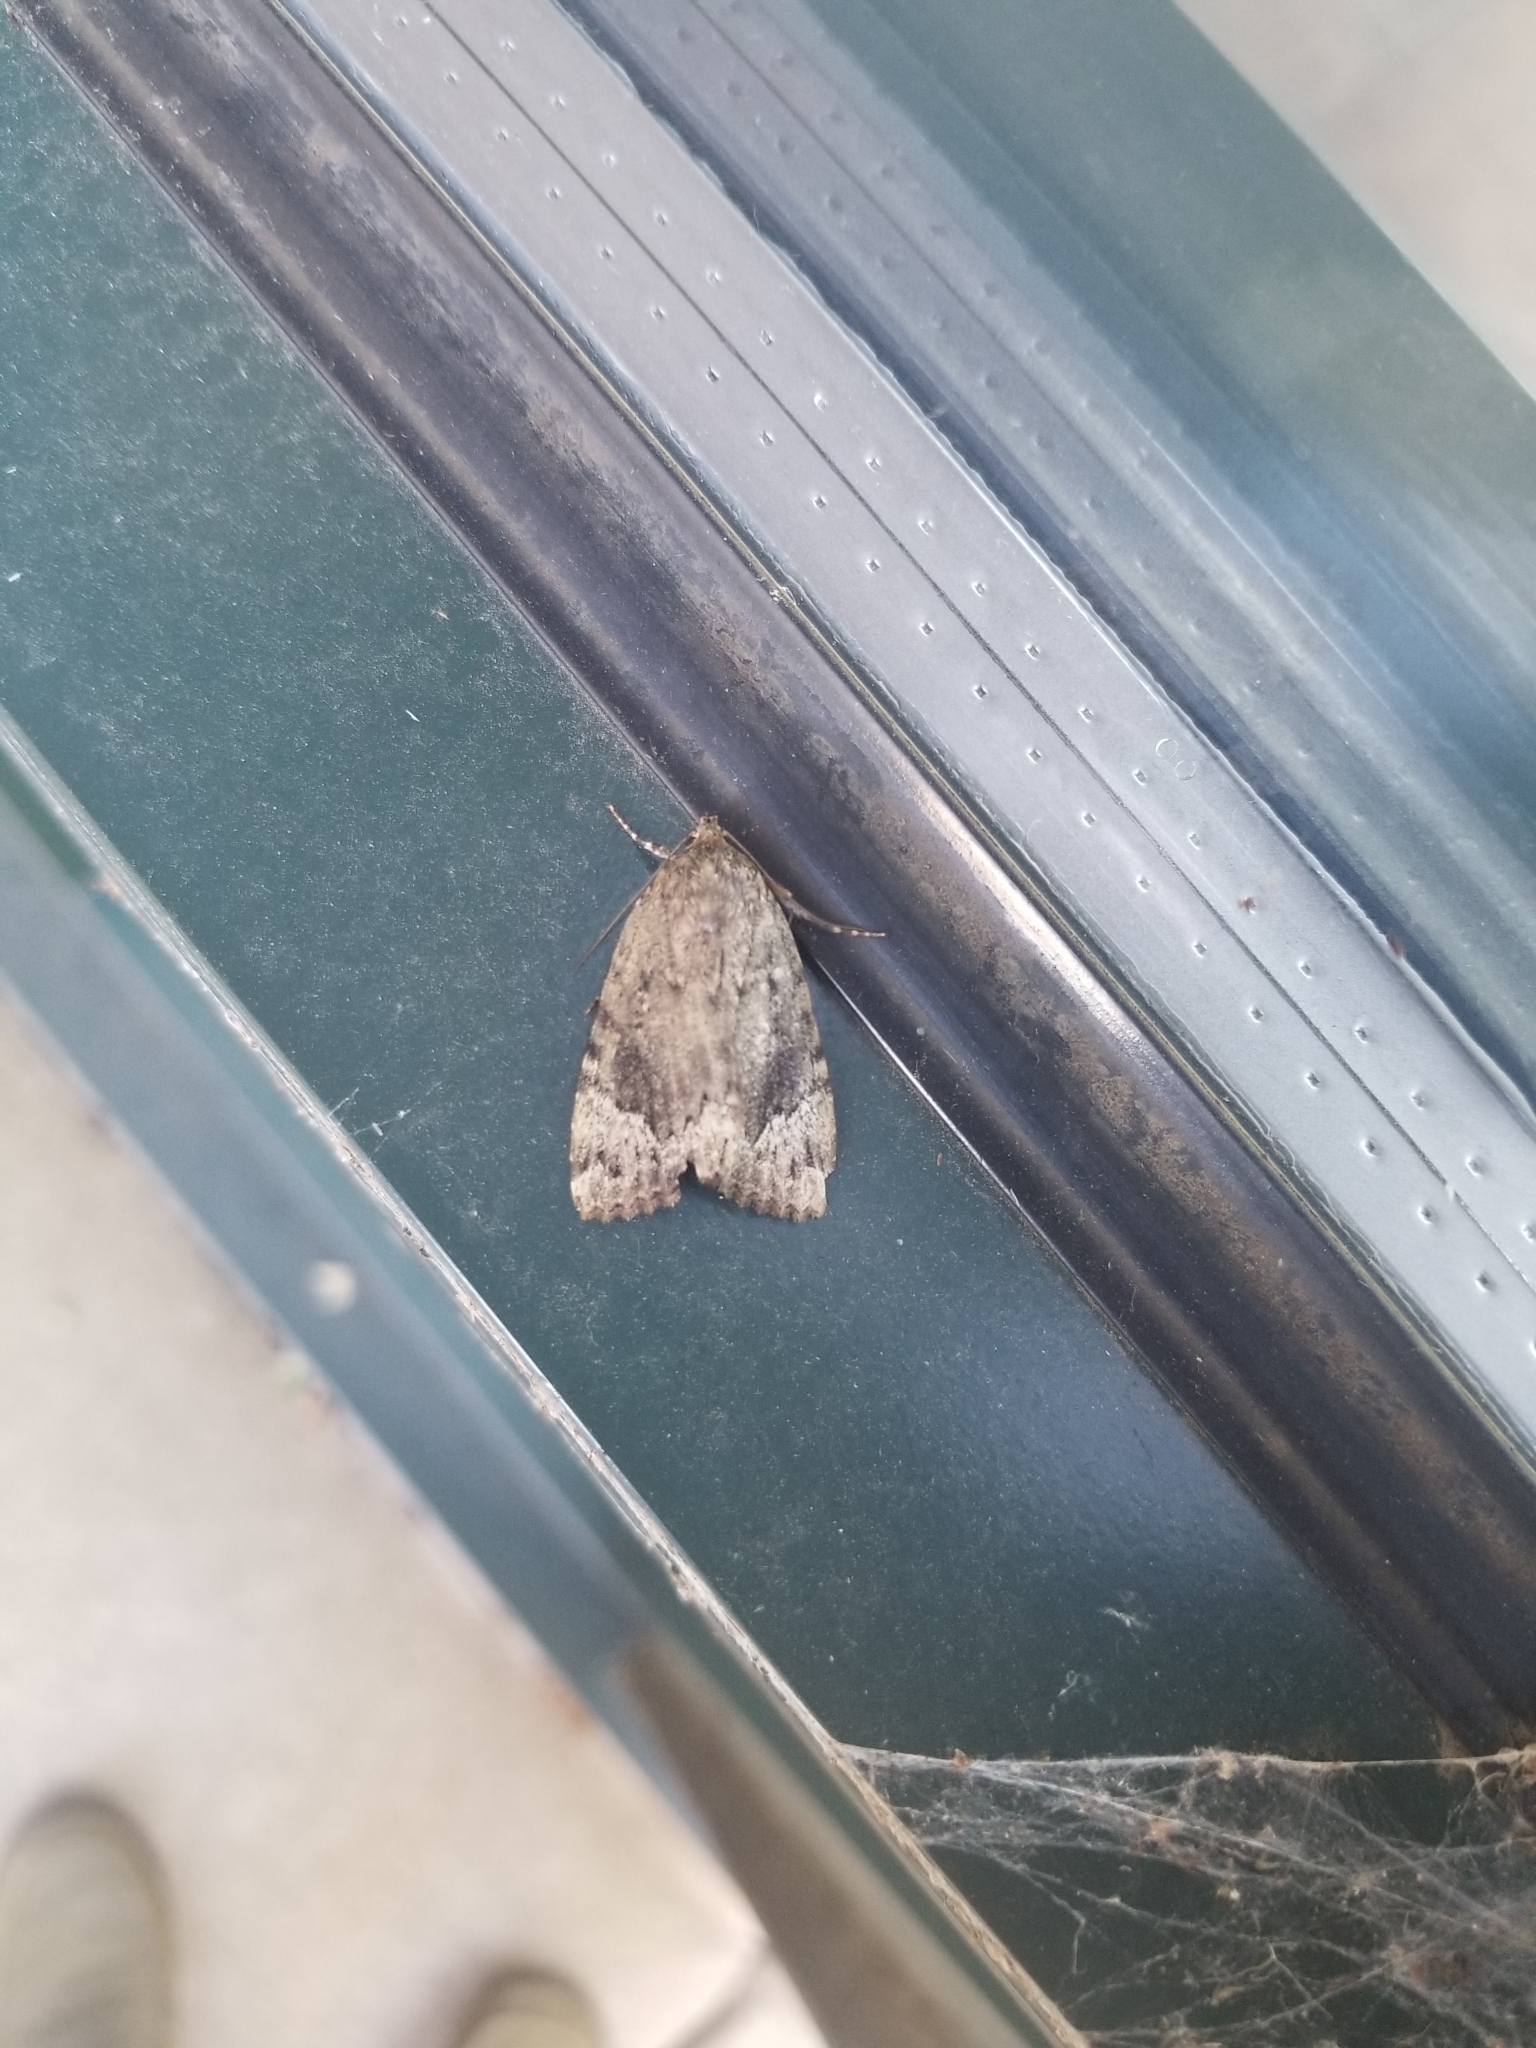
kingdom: Animalia
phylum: Arthropoda
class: Insecta
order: Lepidoptera
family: Noctuidae
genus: Amphipyra
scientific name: Amphipyra pyramidoides
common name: American copper underwing
